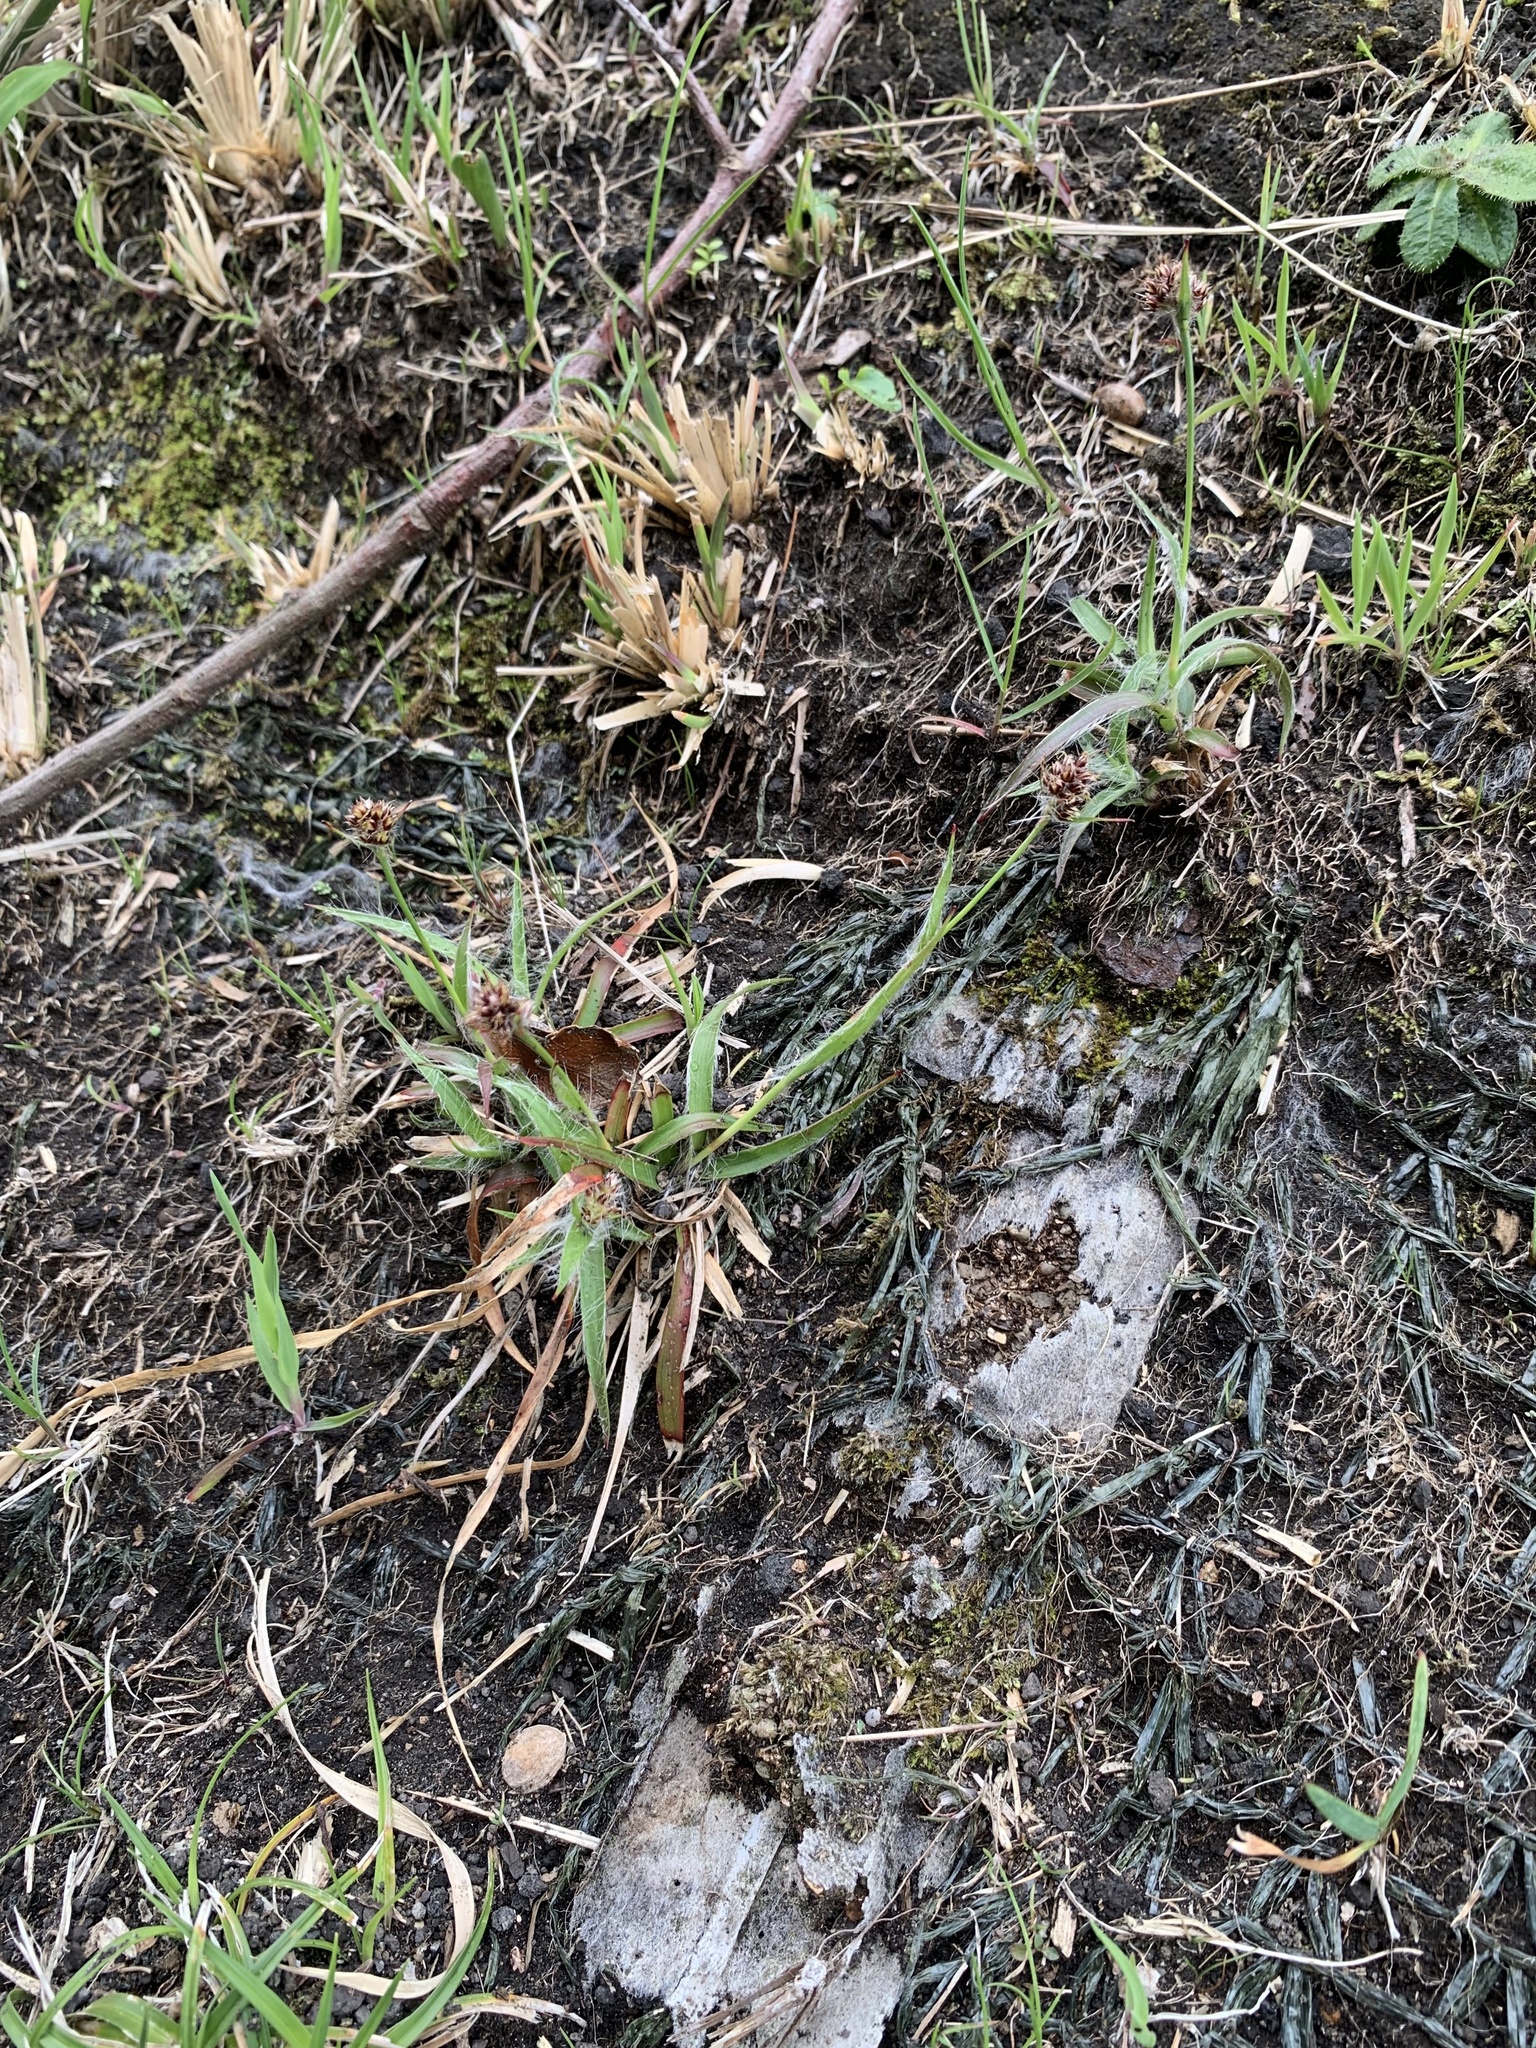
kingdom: Plantae
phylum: Tracheophyta
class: Liliopsida
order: Poales
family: Juncaceae
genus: Luzula
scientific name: Luzula capitata
